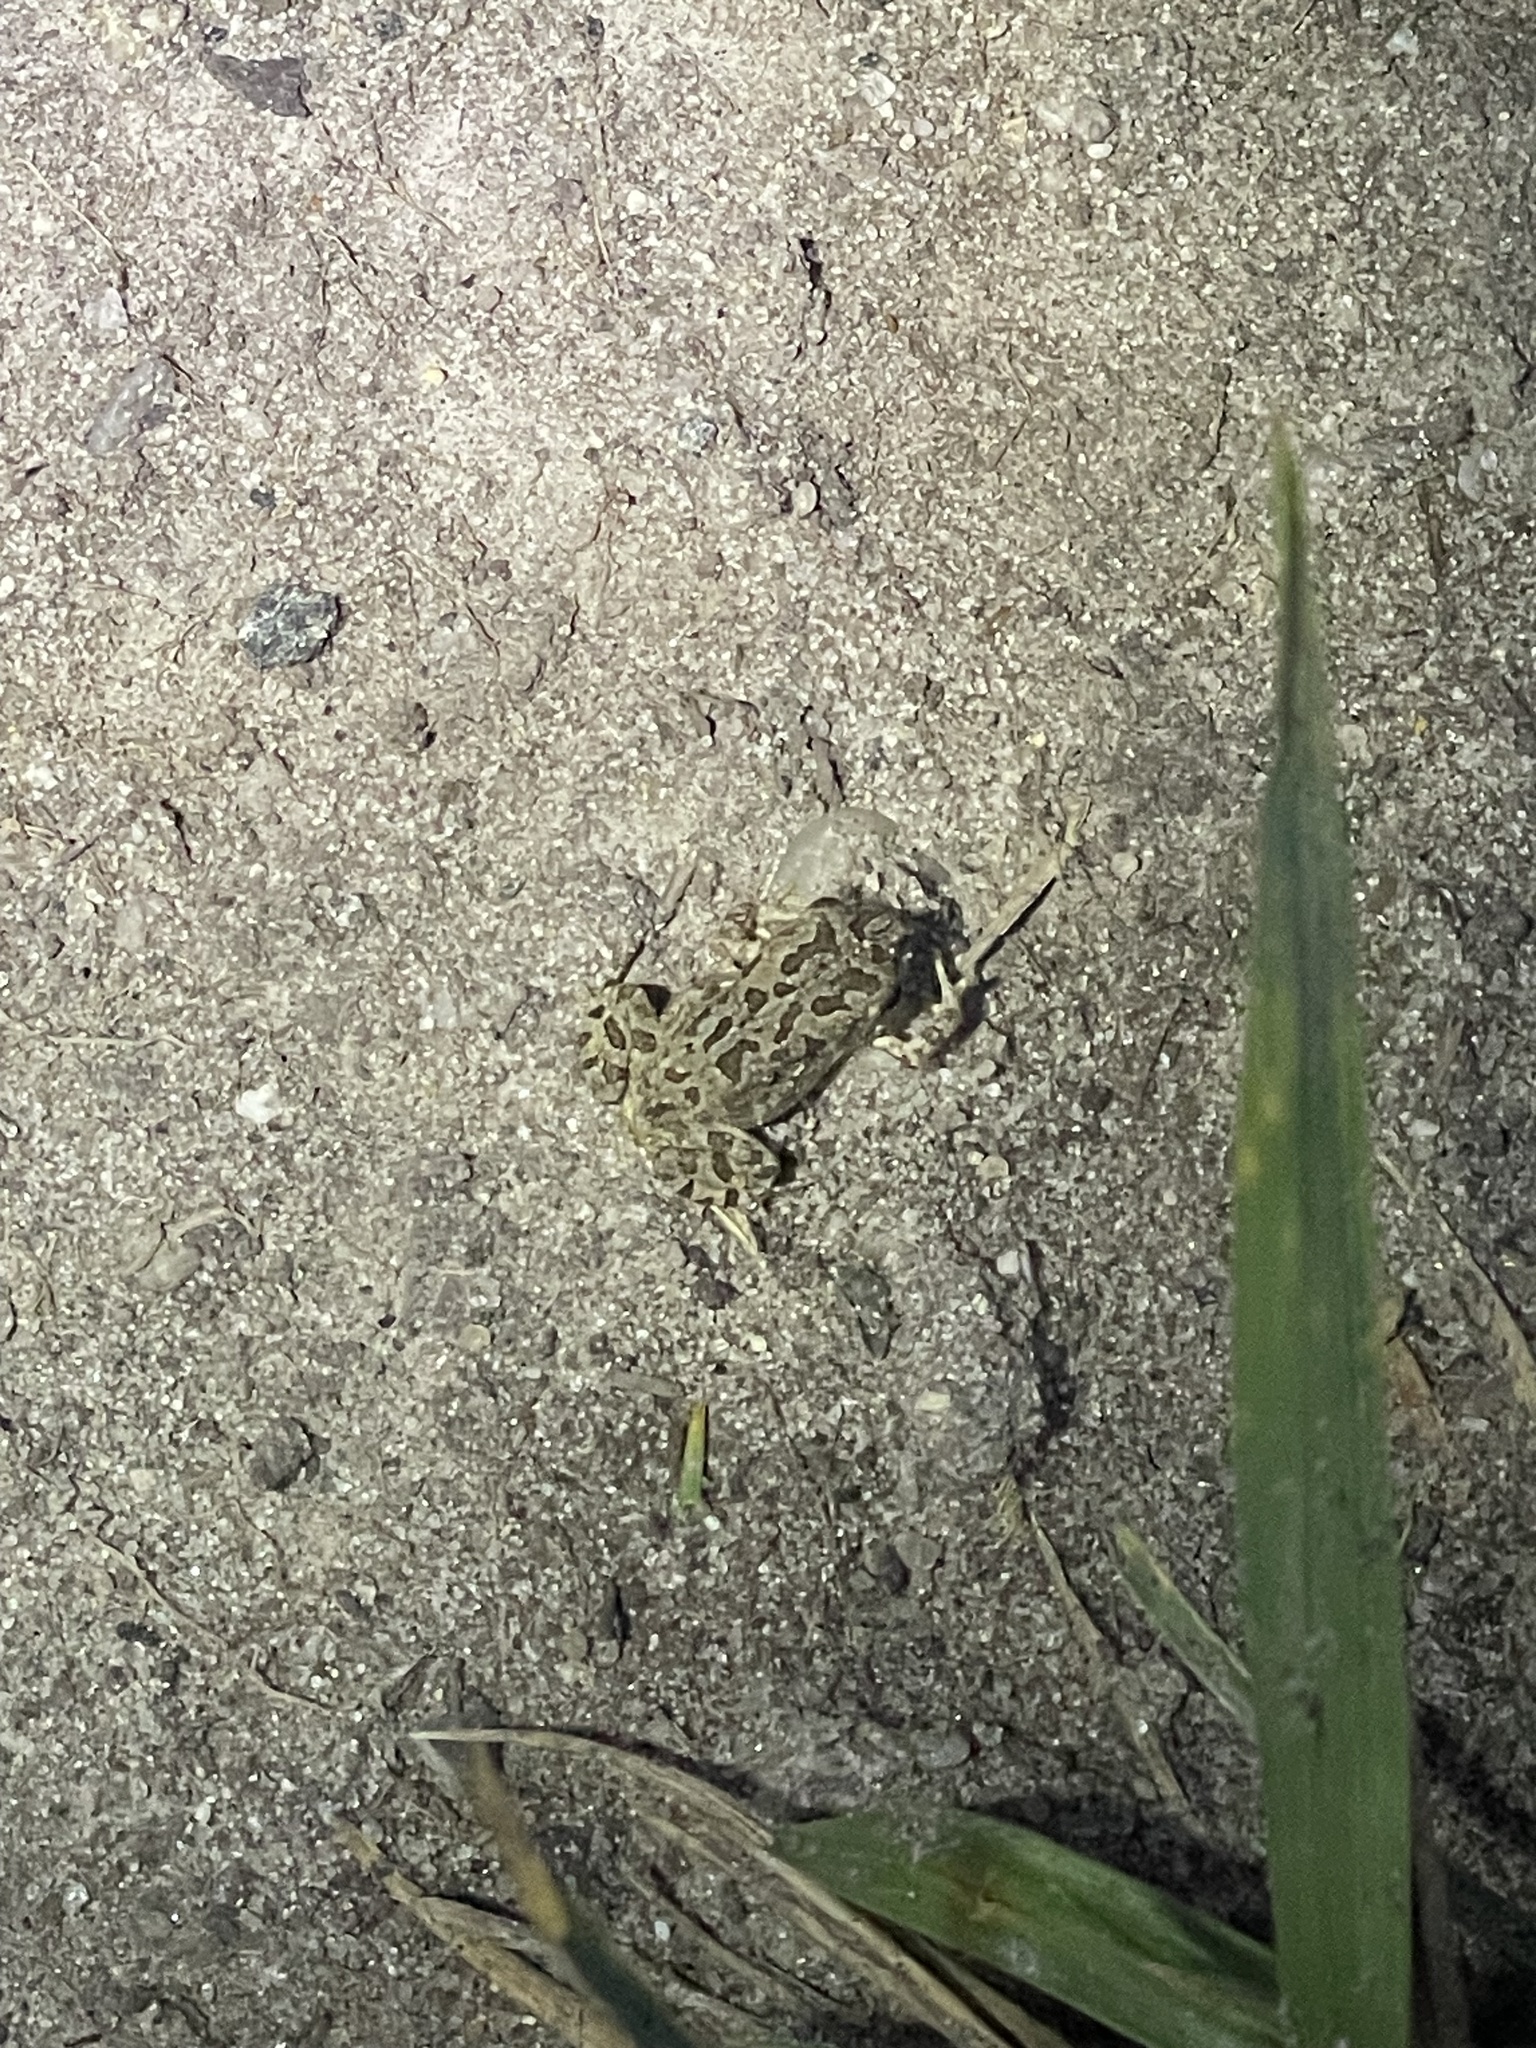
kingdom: Animalia
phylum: Chordata
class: Amphibia
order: Anura
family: Bufonidae
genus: Anaxyrus
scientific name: Anaxyrus fowleri
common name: Fowler's toad
